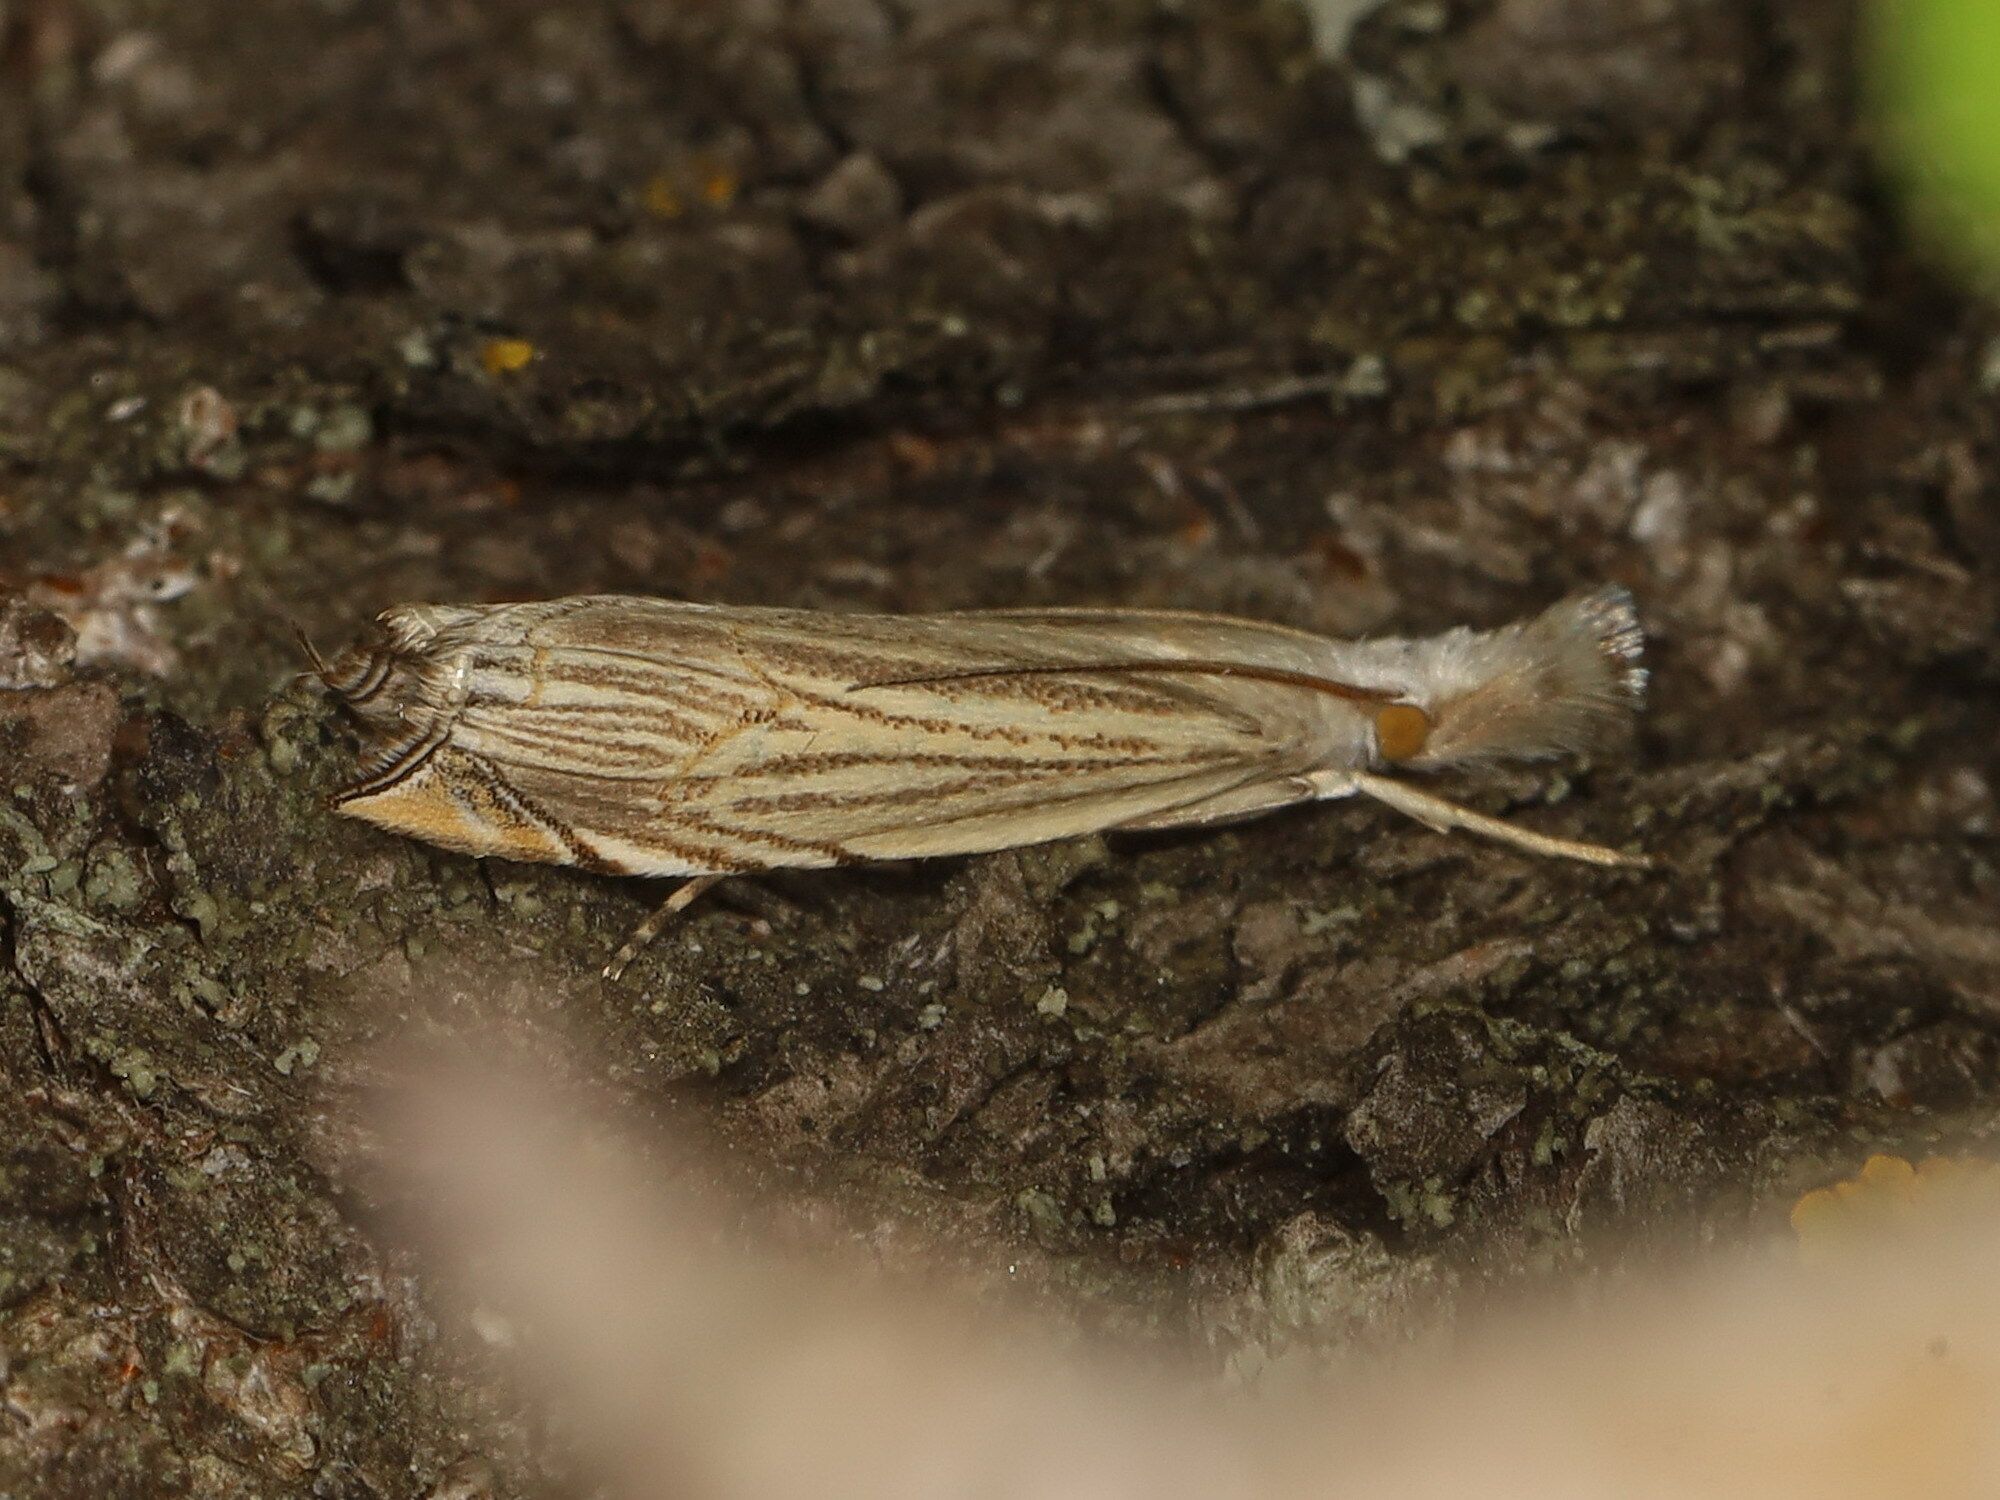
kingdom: Animalia
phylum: Arthropoda
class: Insecta
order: Lepidoptera
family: Crambidae
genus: Metacrambus
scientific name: Metacrambus carectellus
